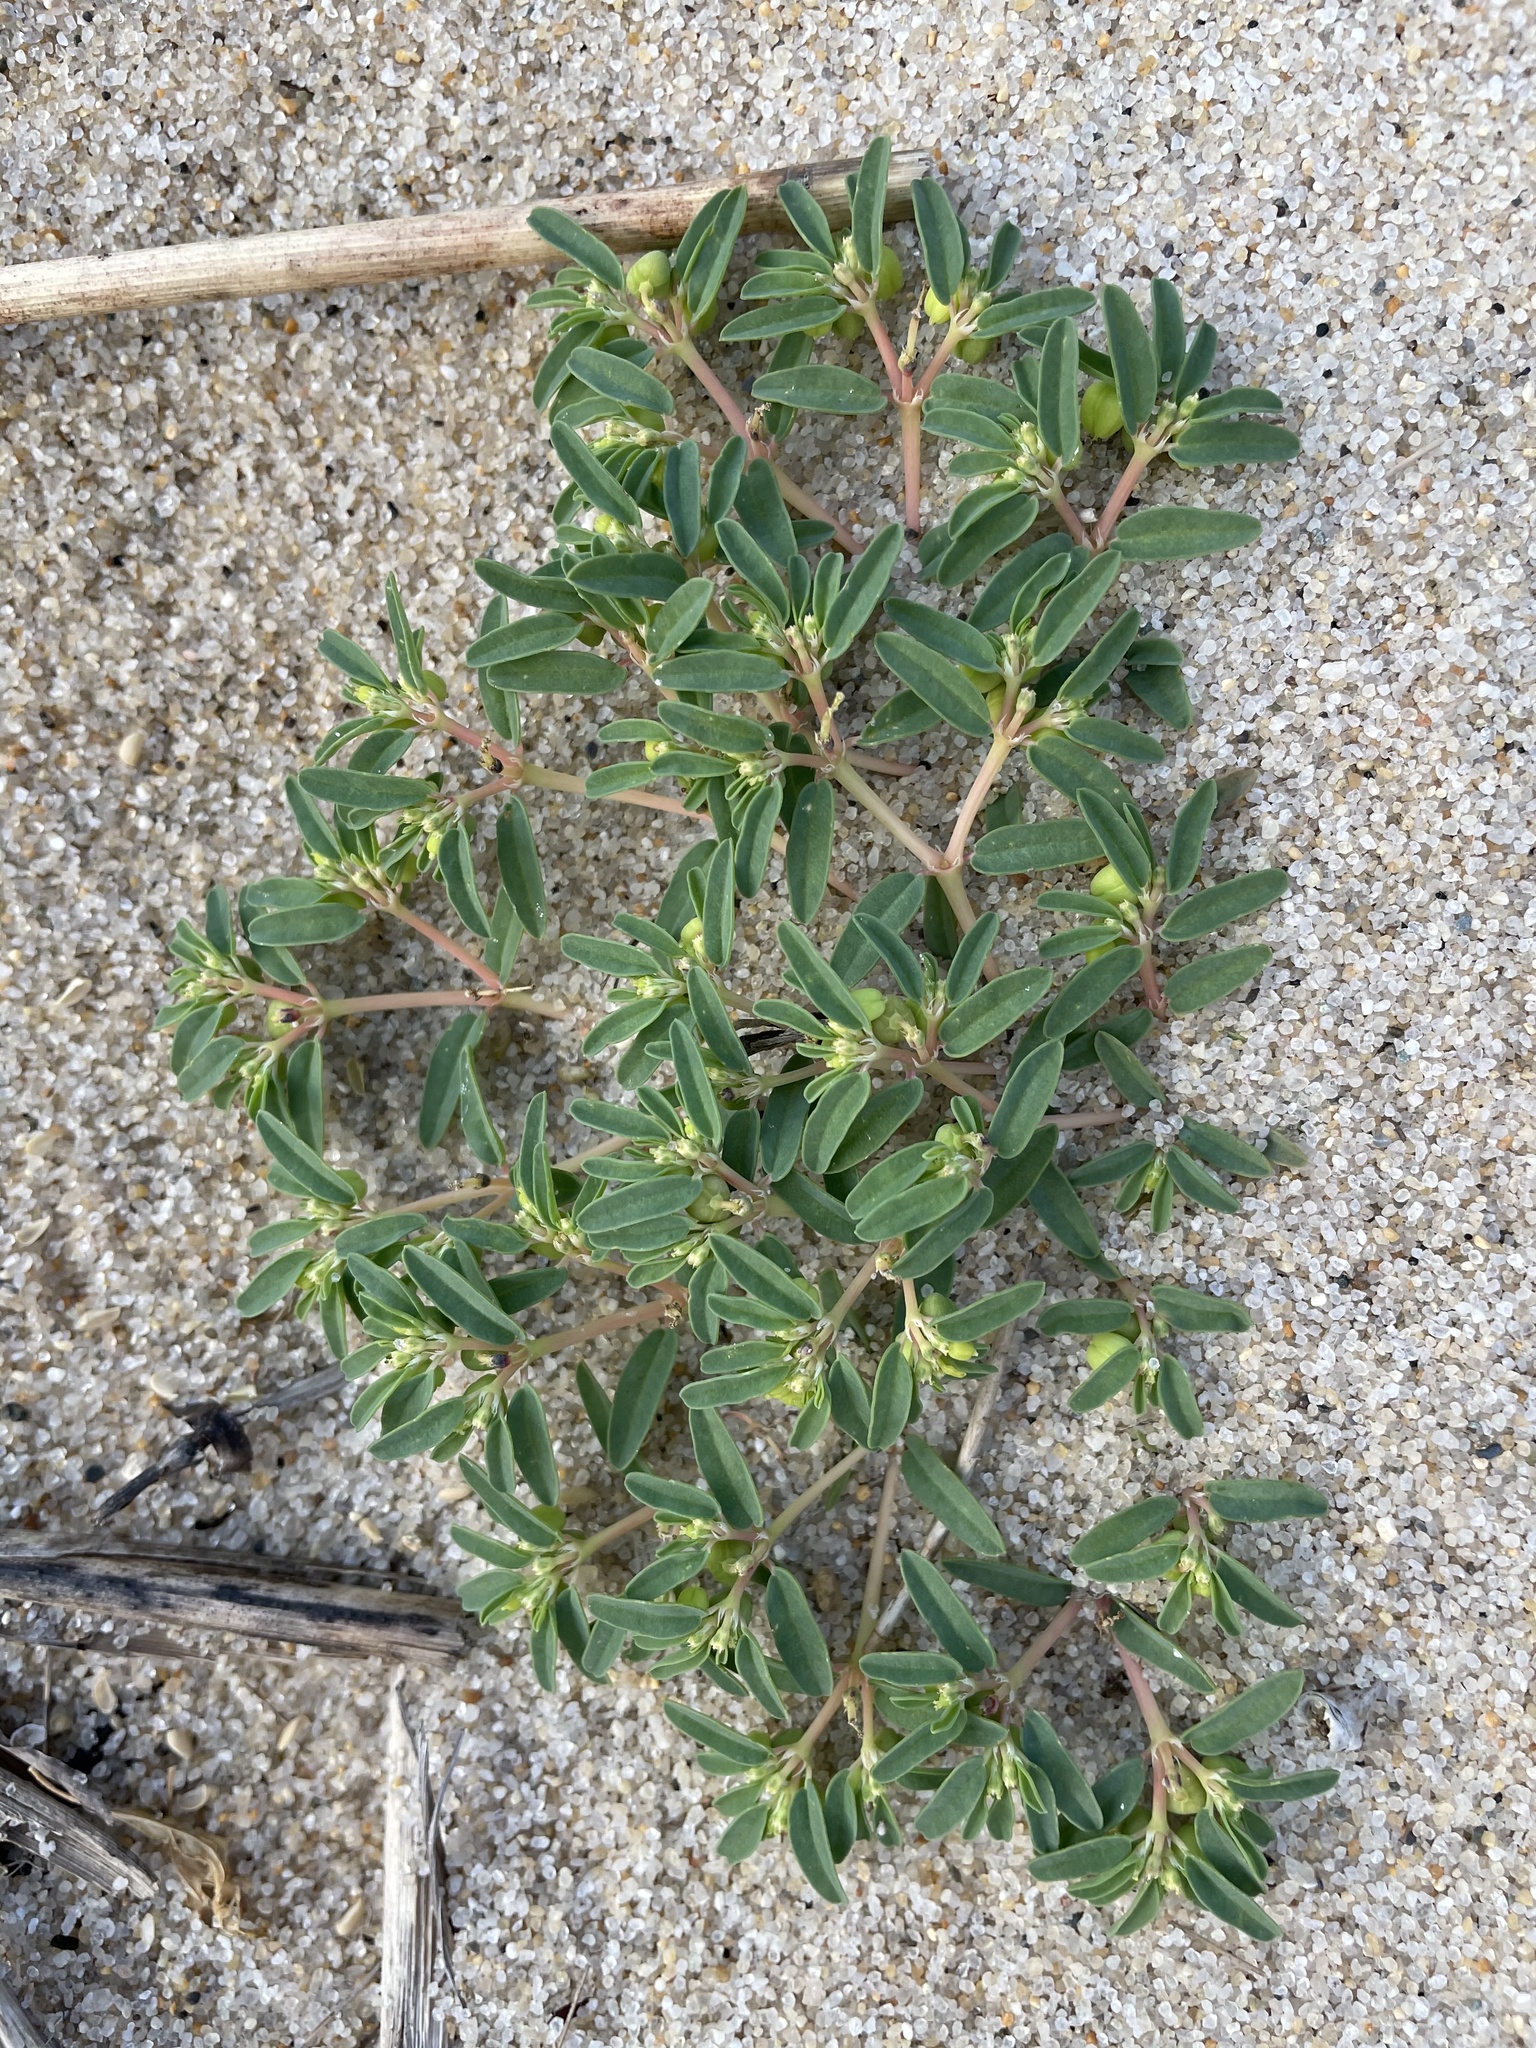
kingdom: Plantae
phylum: Tracheophyta
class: Magnoliopsida
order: Malpighiales
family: Euphorbiaceae
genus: Euphorbia
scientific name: Euphorbia polygonifolia
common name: Knotweed spurge
